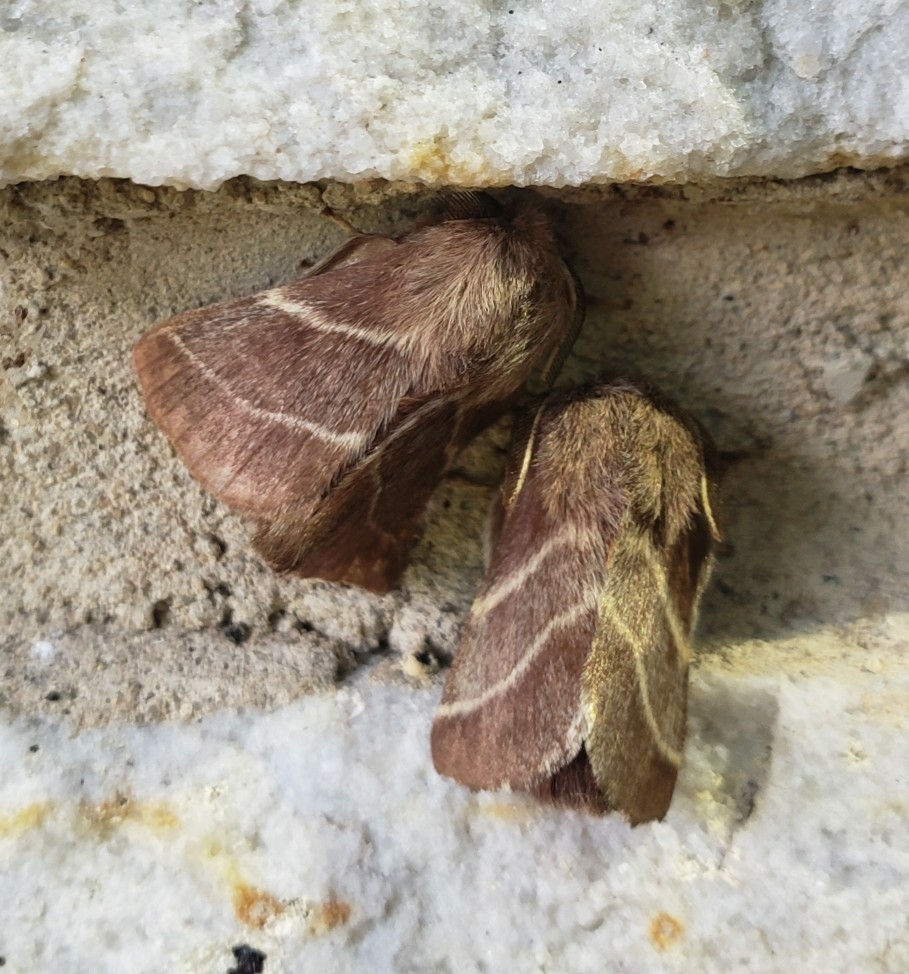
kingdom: Animalia
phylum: Arthropoda
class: Insecta
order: Lepidoptera
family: Lasiocampidae
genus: Malacosoma
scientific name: Malacosoma americana
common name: Eastern tent caterpillar moth
